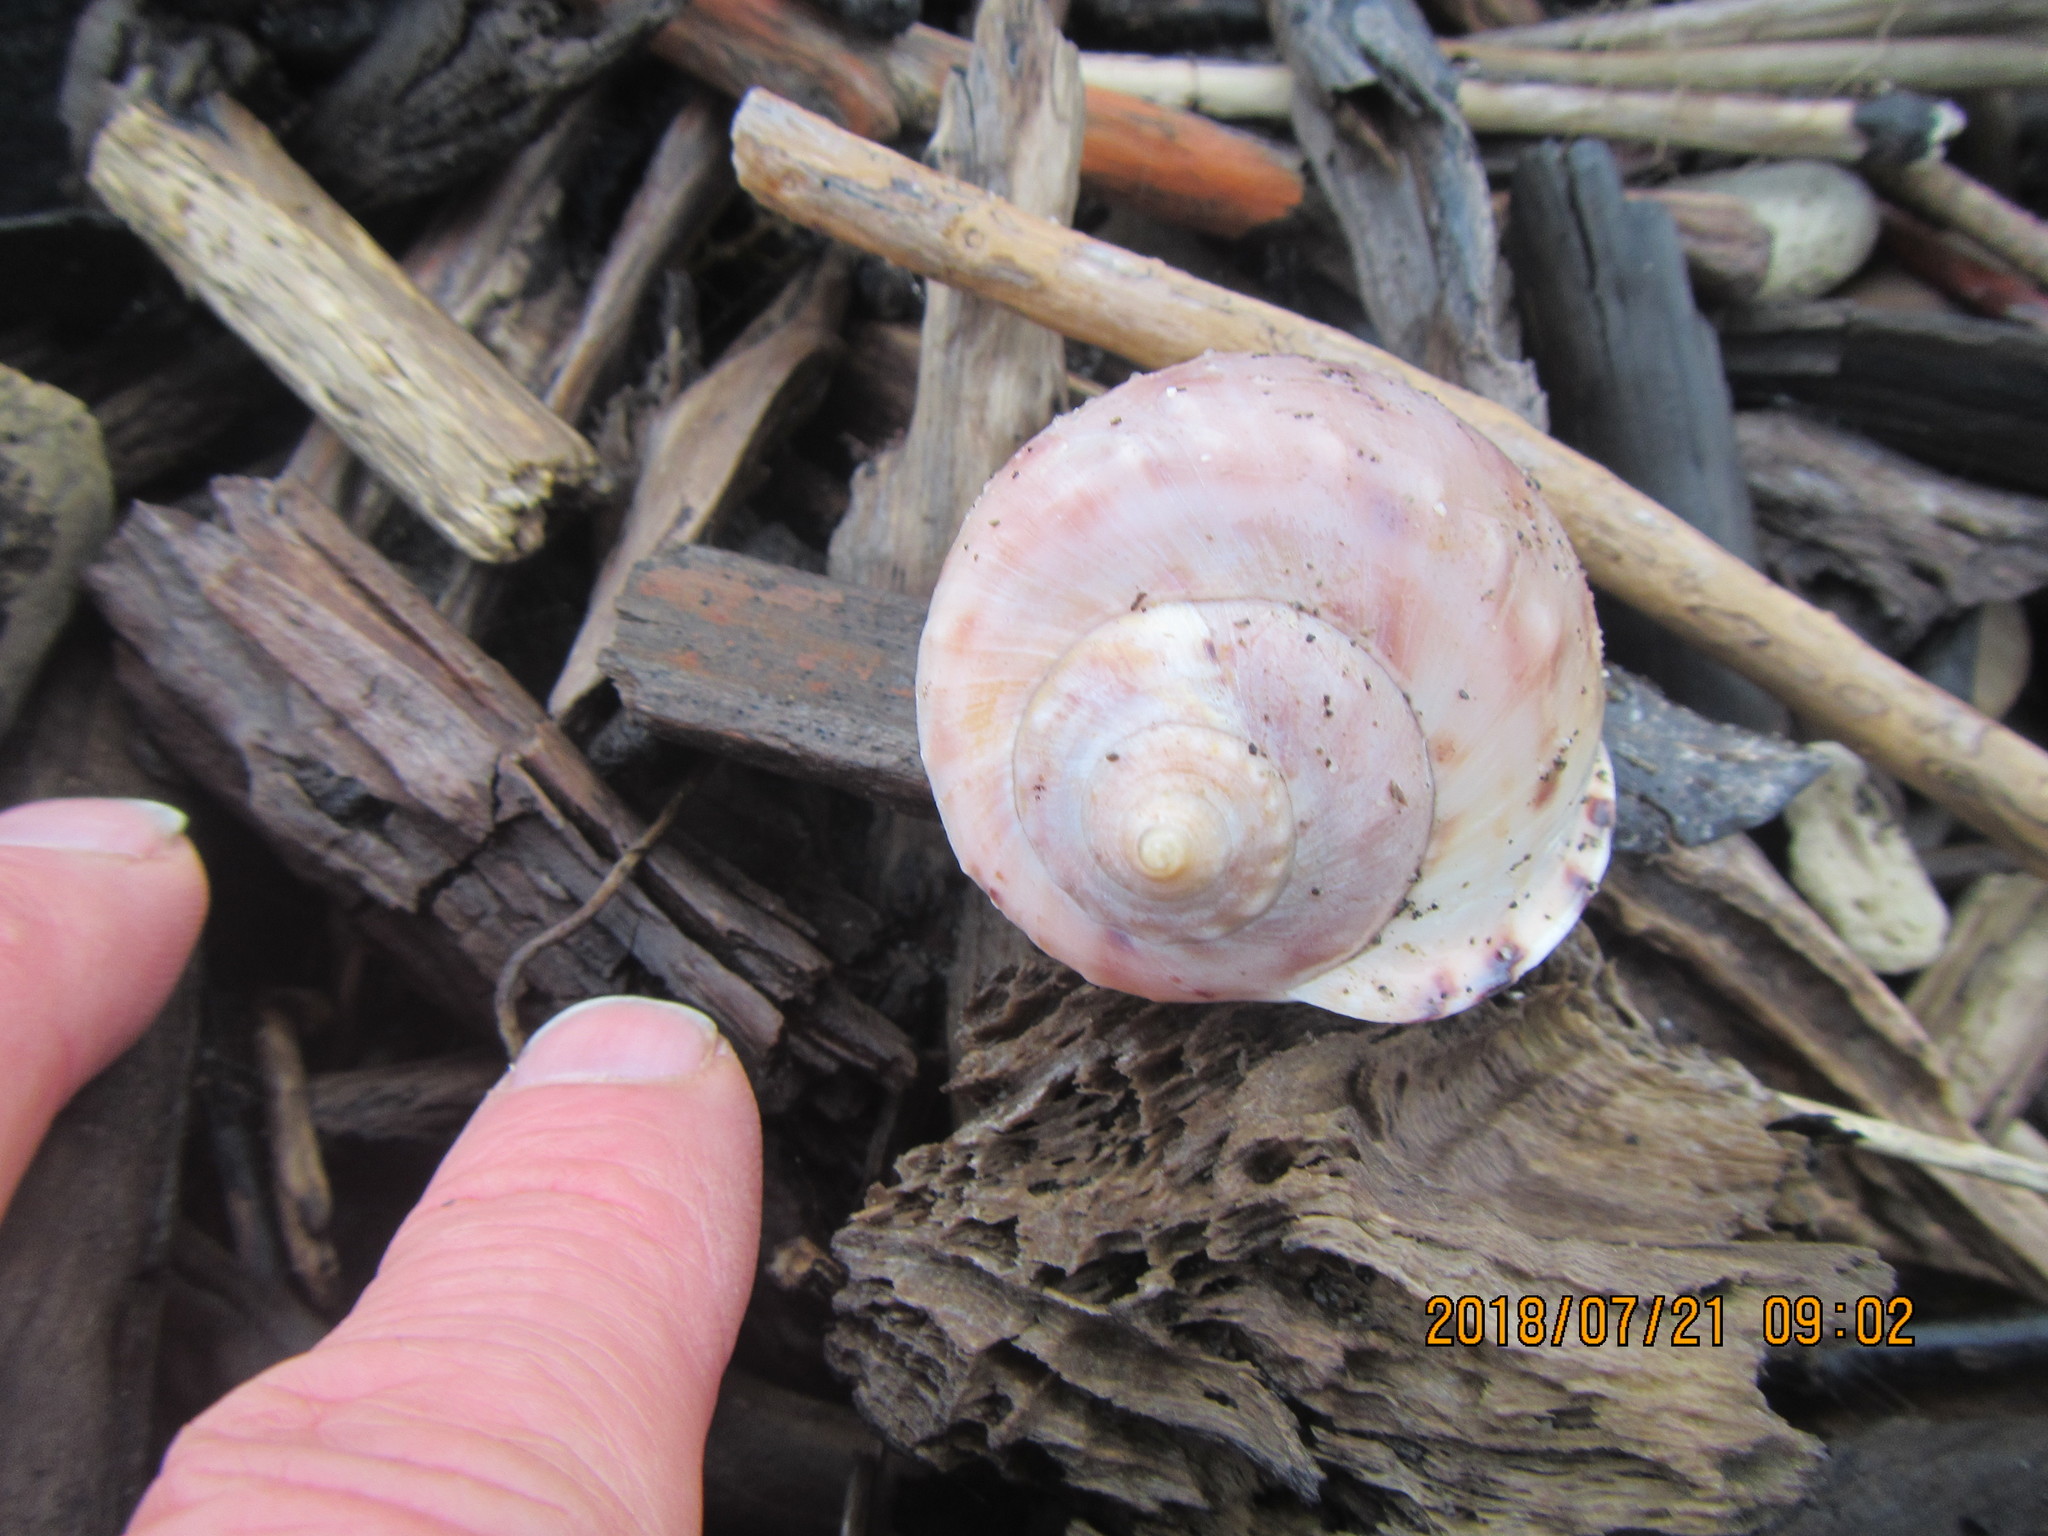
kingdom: Animalia
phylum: Mollusca
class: Gastropoda
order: Littorinimorpha
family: Cassidae
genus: Semicassis
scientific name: Semicassis pyrum
